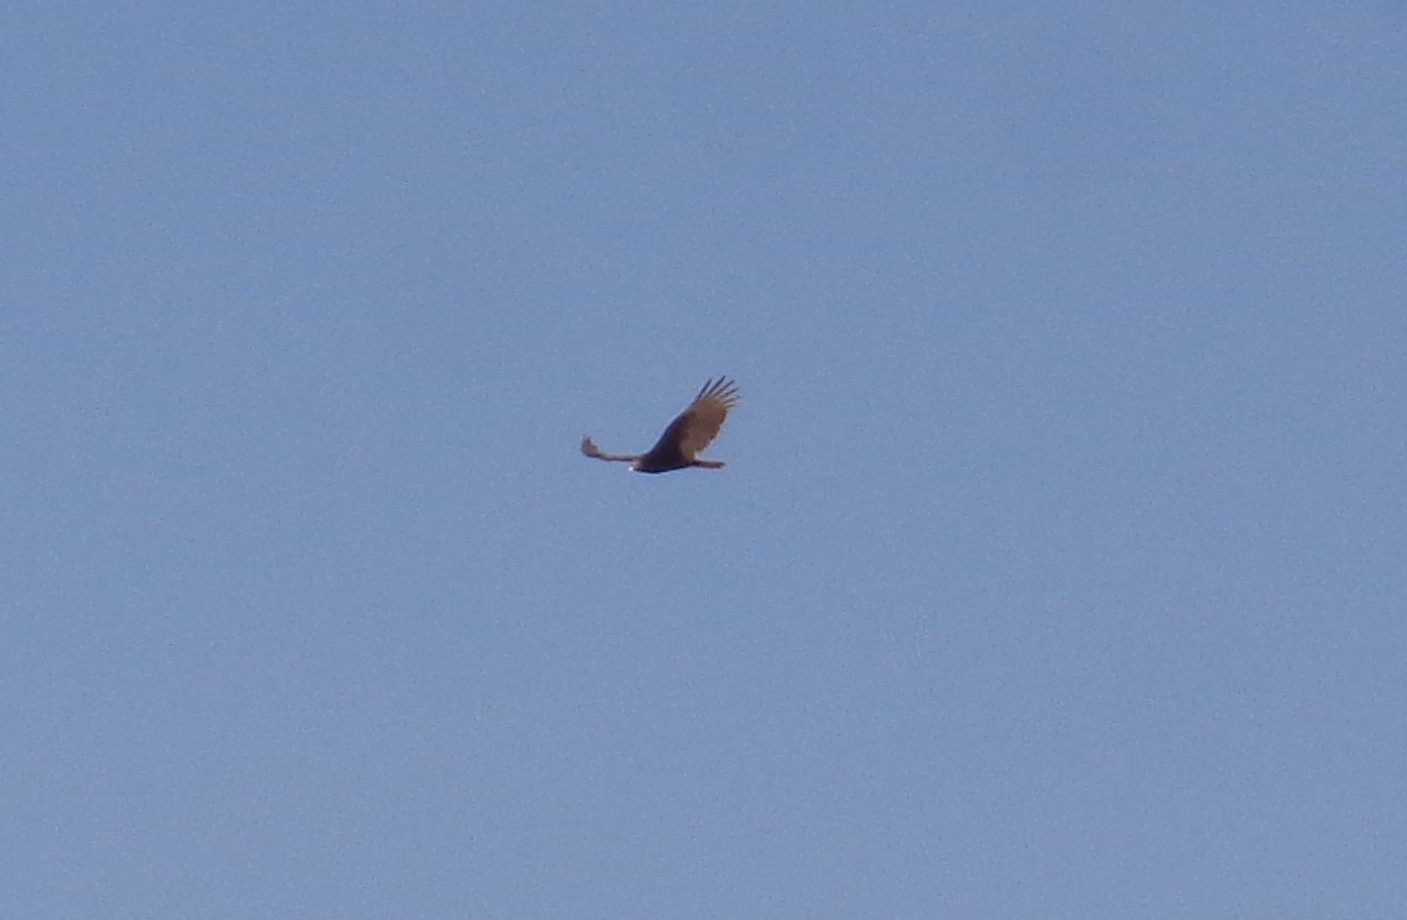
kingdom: Animalia
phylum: Chordata
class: Aves
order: Accipitriformes
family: Cathartidae
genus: Cathartes
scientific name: Cathartes aura
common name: Turkey vulture
